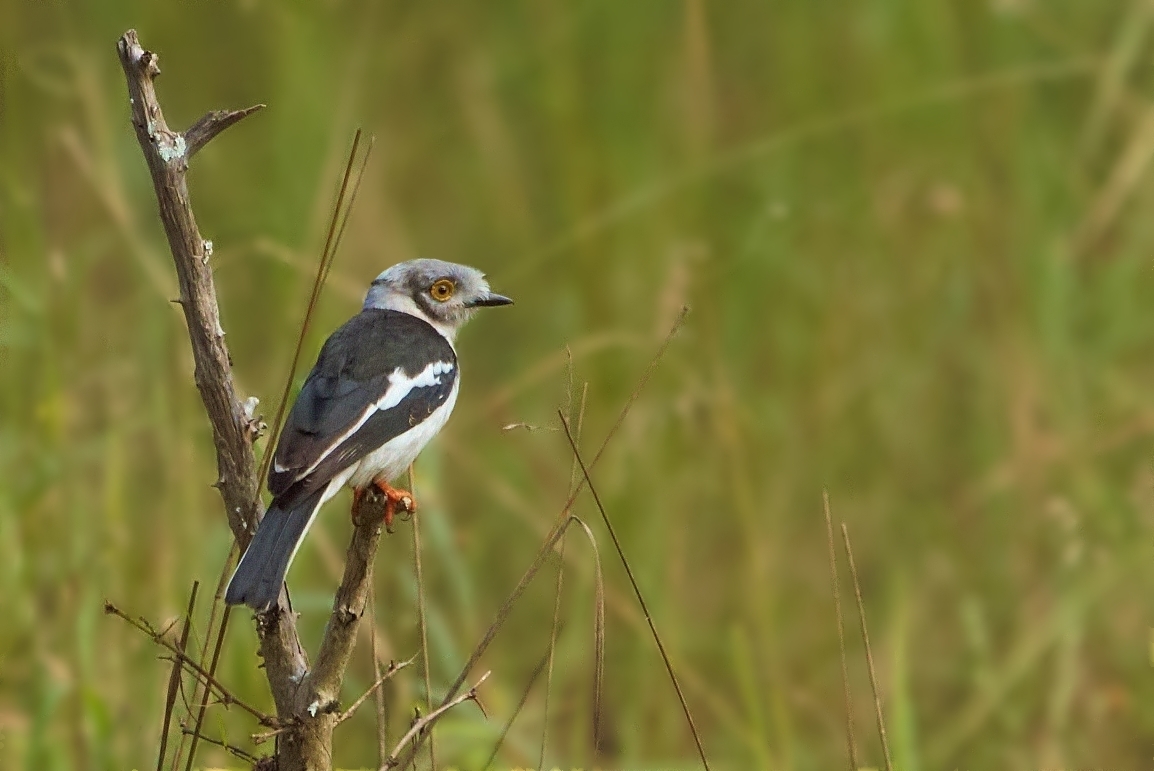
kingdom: Animalia
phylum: Chordata
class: Aves
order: Passeriformes
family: Prionopidae
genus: Prionops
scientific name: Prionops plumatus
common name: White-crested helmetshrike
